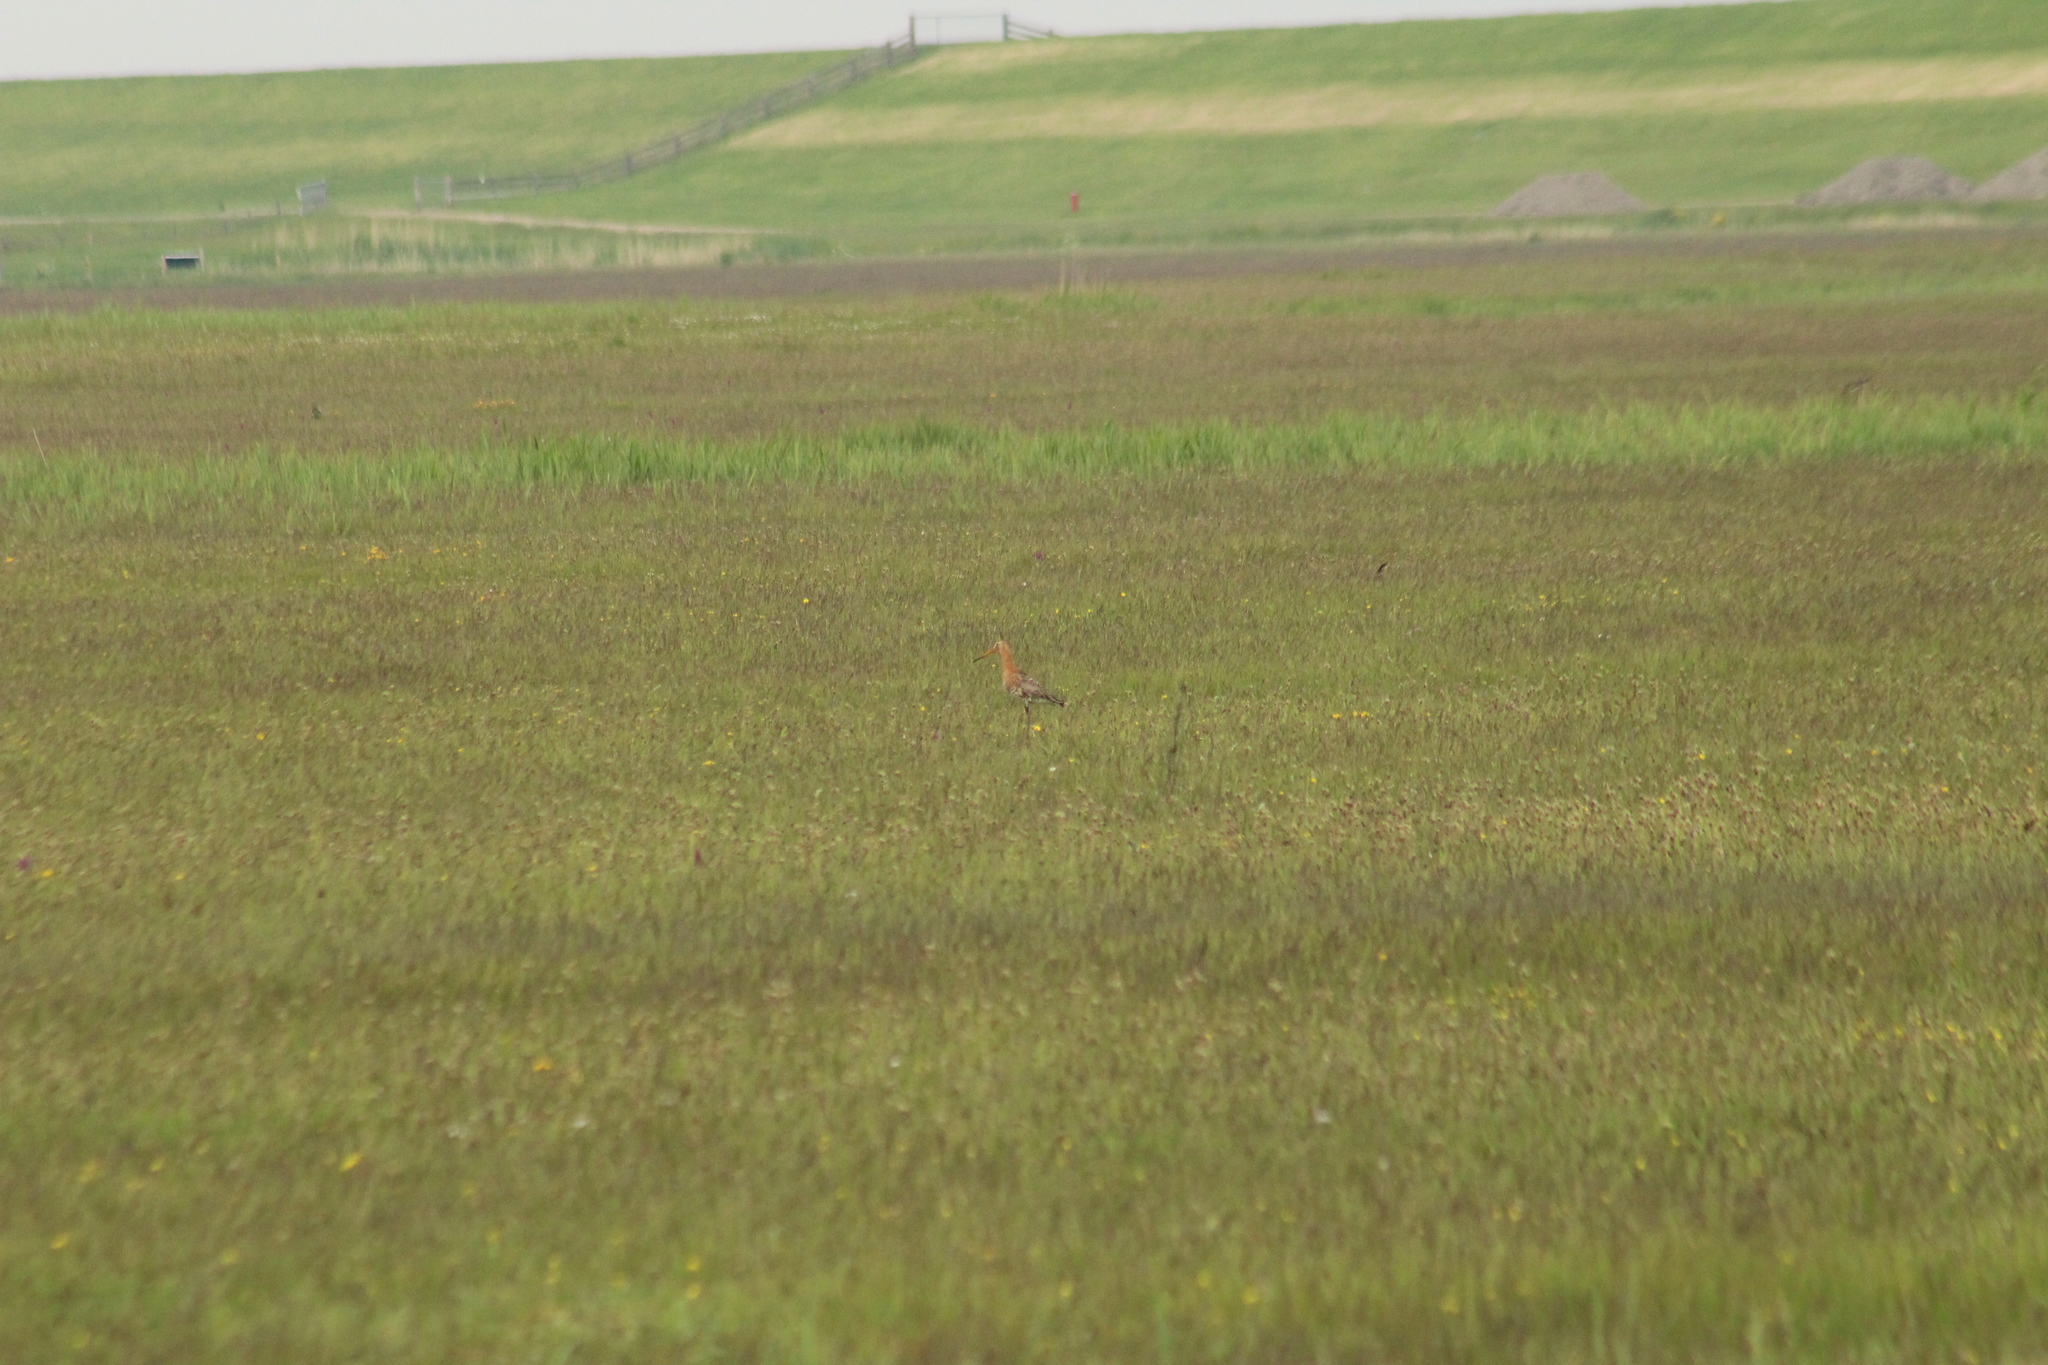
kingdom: Animalia
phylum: Chordata
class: Aves
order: Charadriiformes
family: Scolopacidae
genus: Limosa
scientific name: Limosa limosa
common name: Black-tailed godwit
